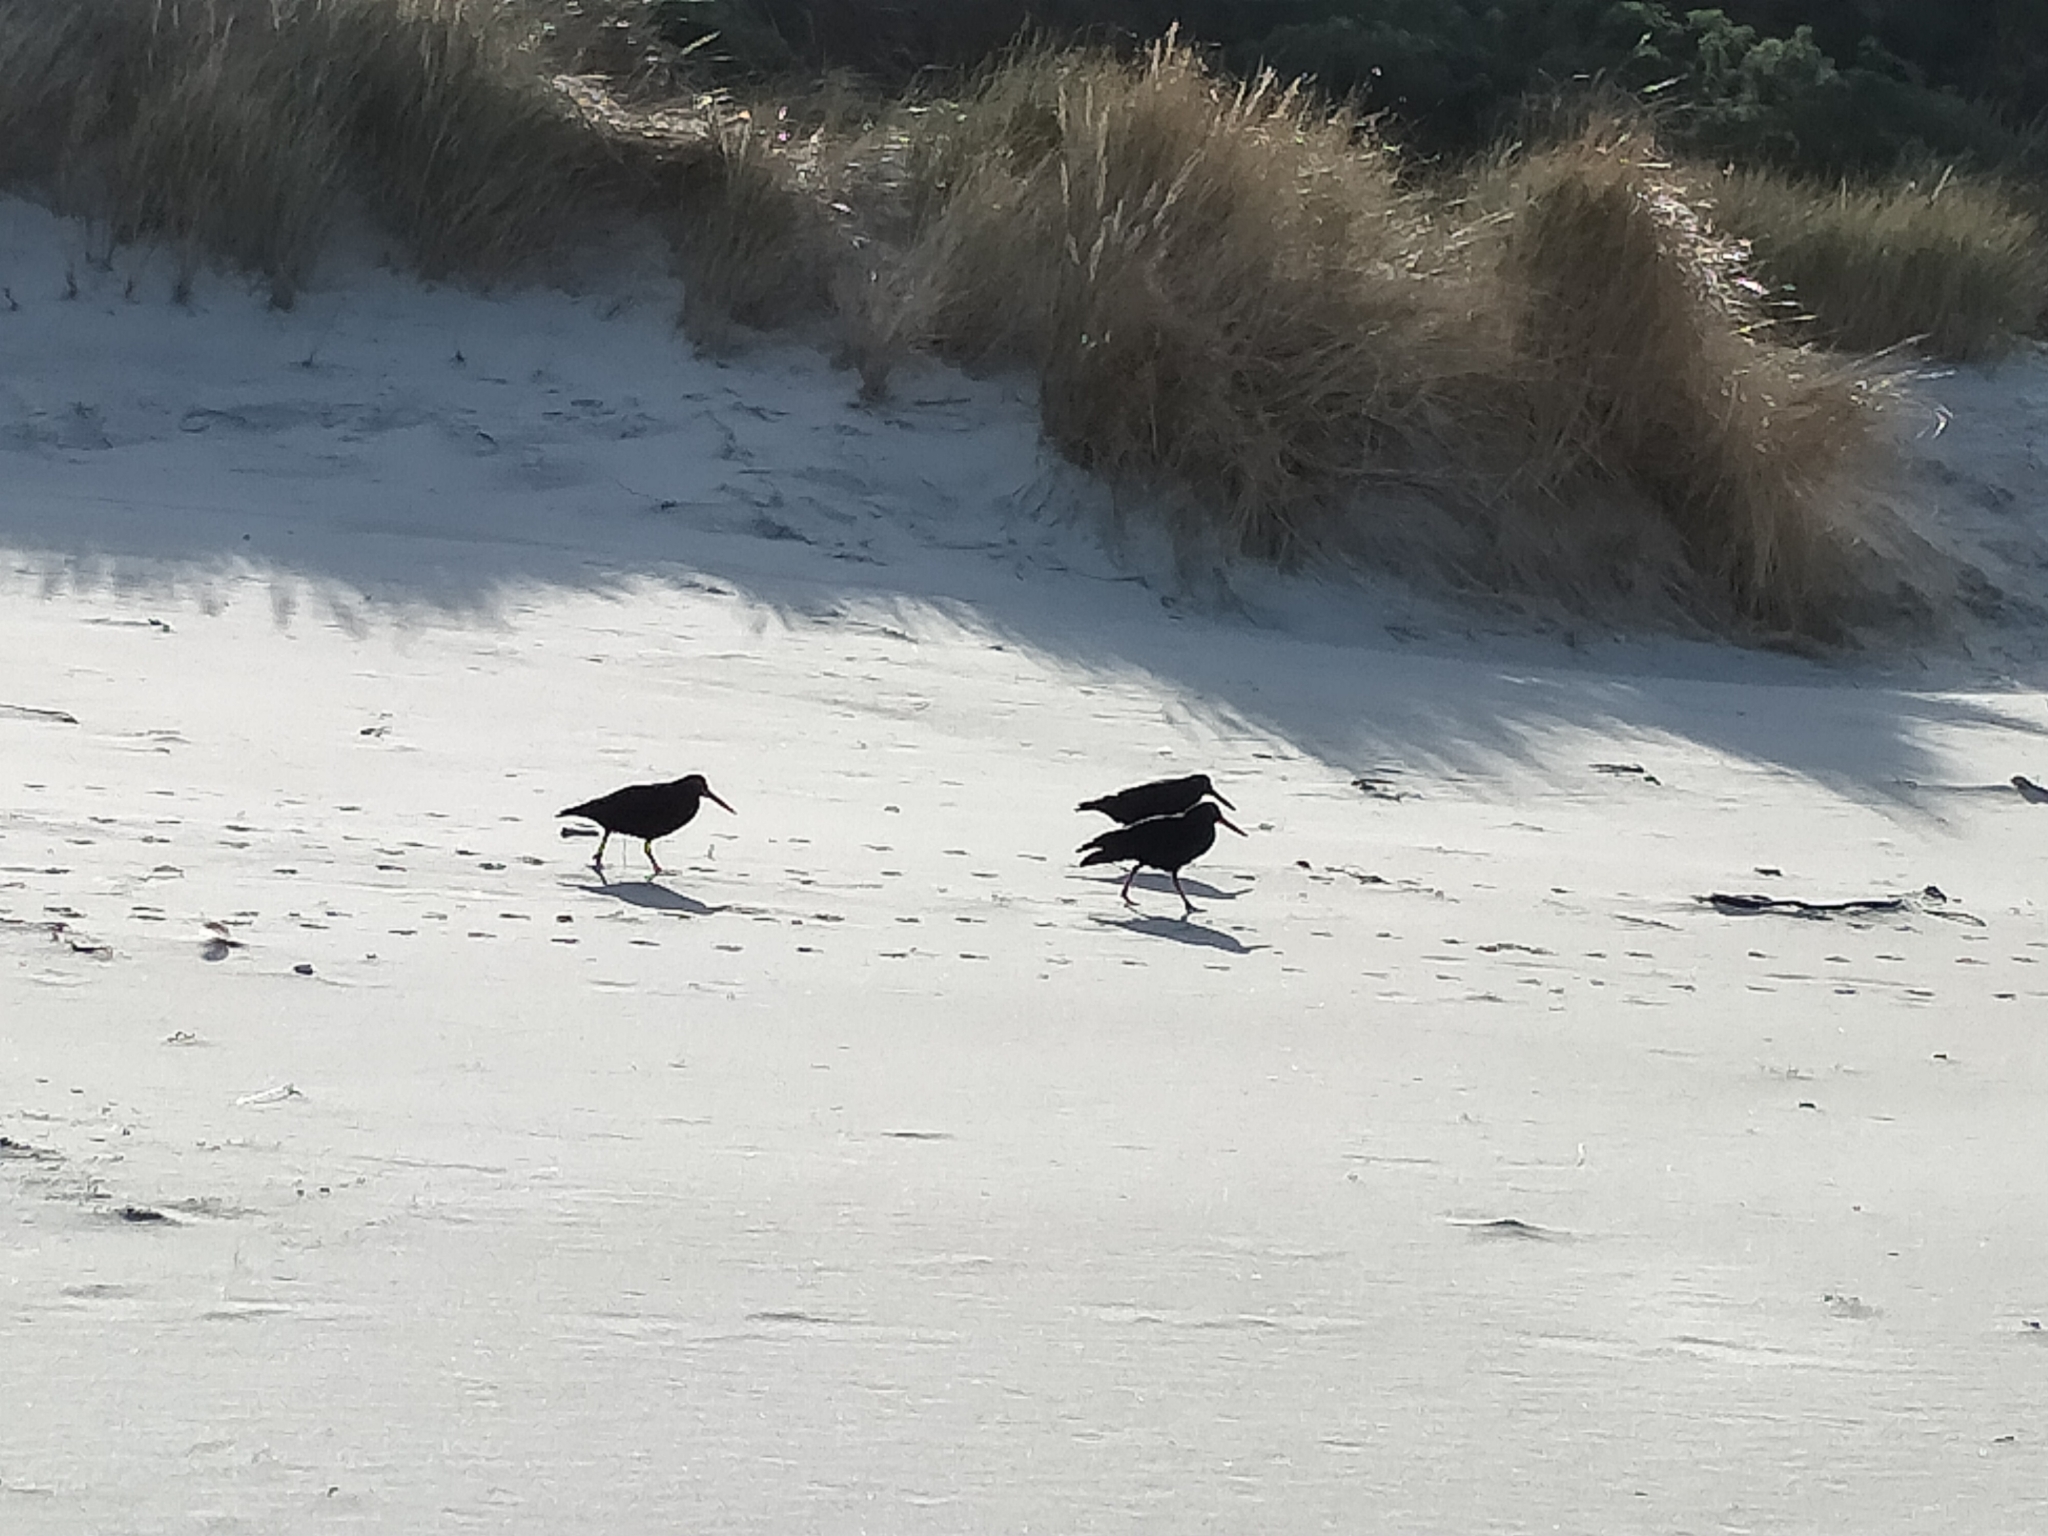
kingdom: Animalia
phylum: Chordata
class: Aves
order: Charadriiformes
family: Haematopodidae
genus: Haematopus
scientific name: Haematopus unicolor
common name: Variable oystercatcher
